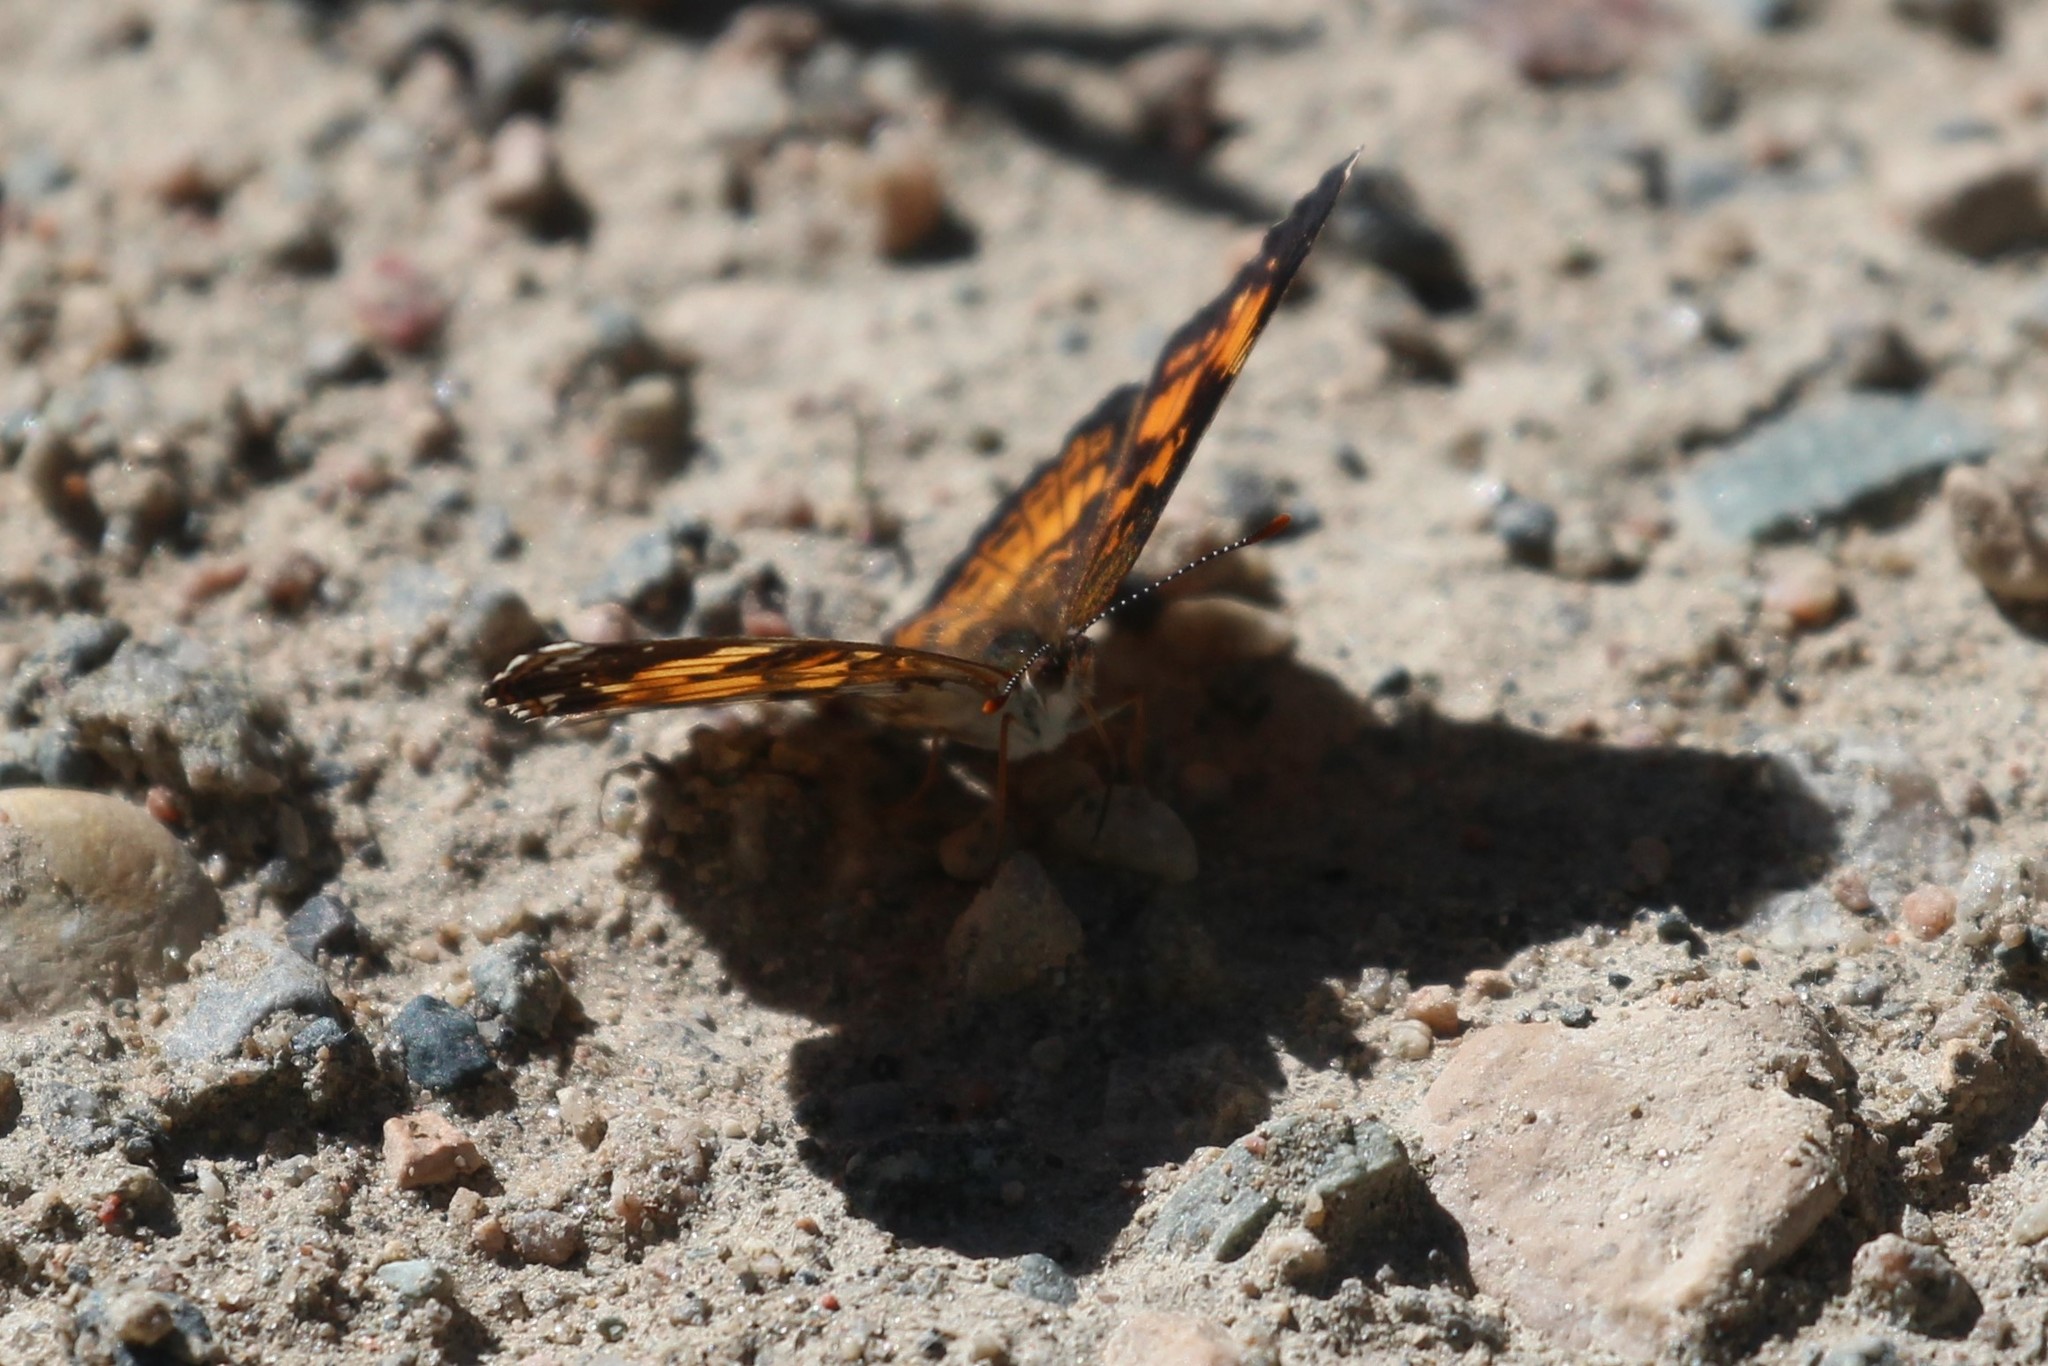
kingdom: Animalia
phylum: Arthropoda
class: Insecta
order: Lepidoptera
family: Nymphalidae
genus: Chlosyne
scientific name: Chlosyne nycteis
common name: Silvery checkerspot
